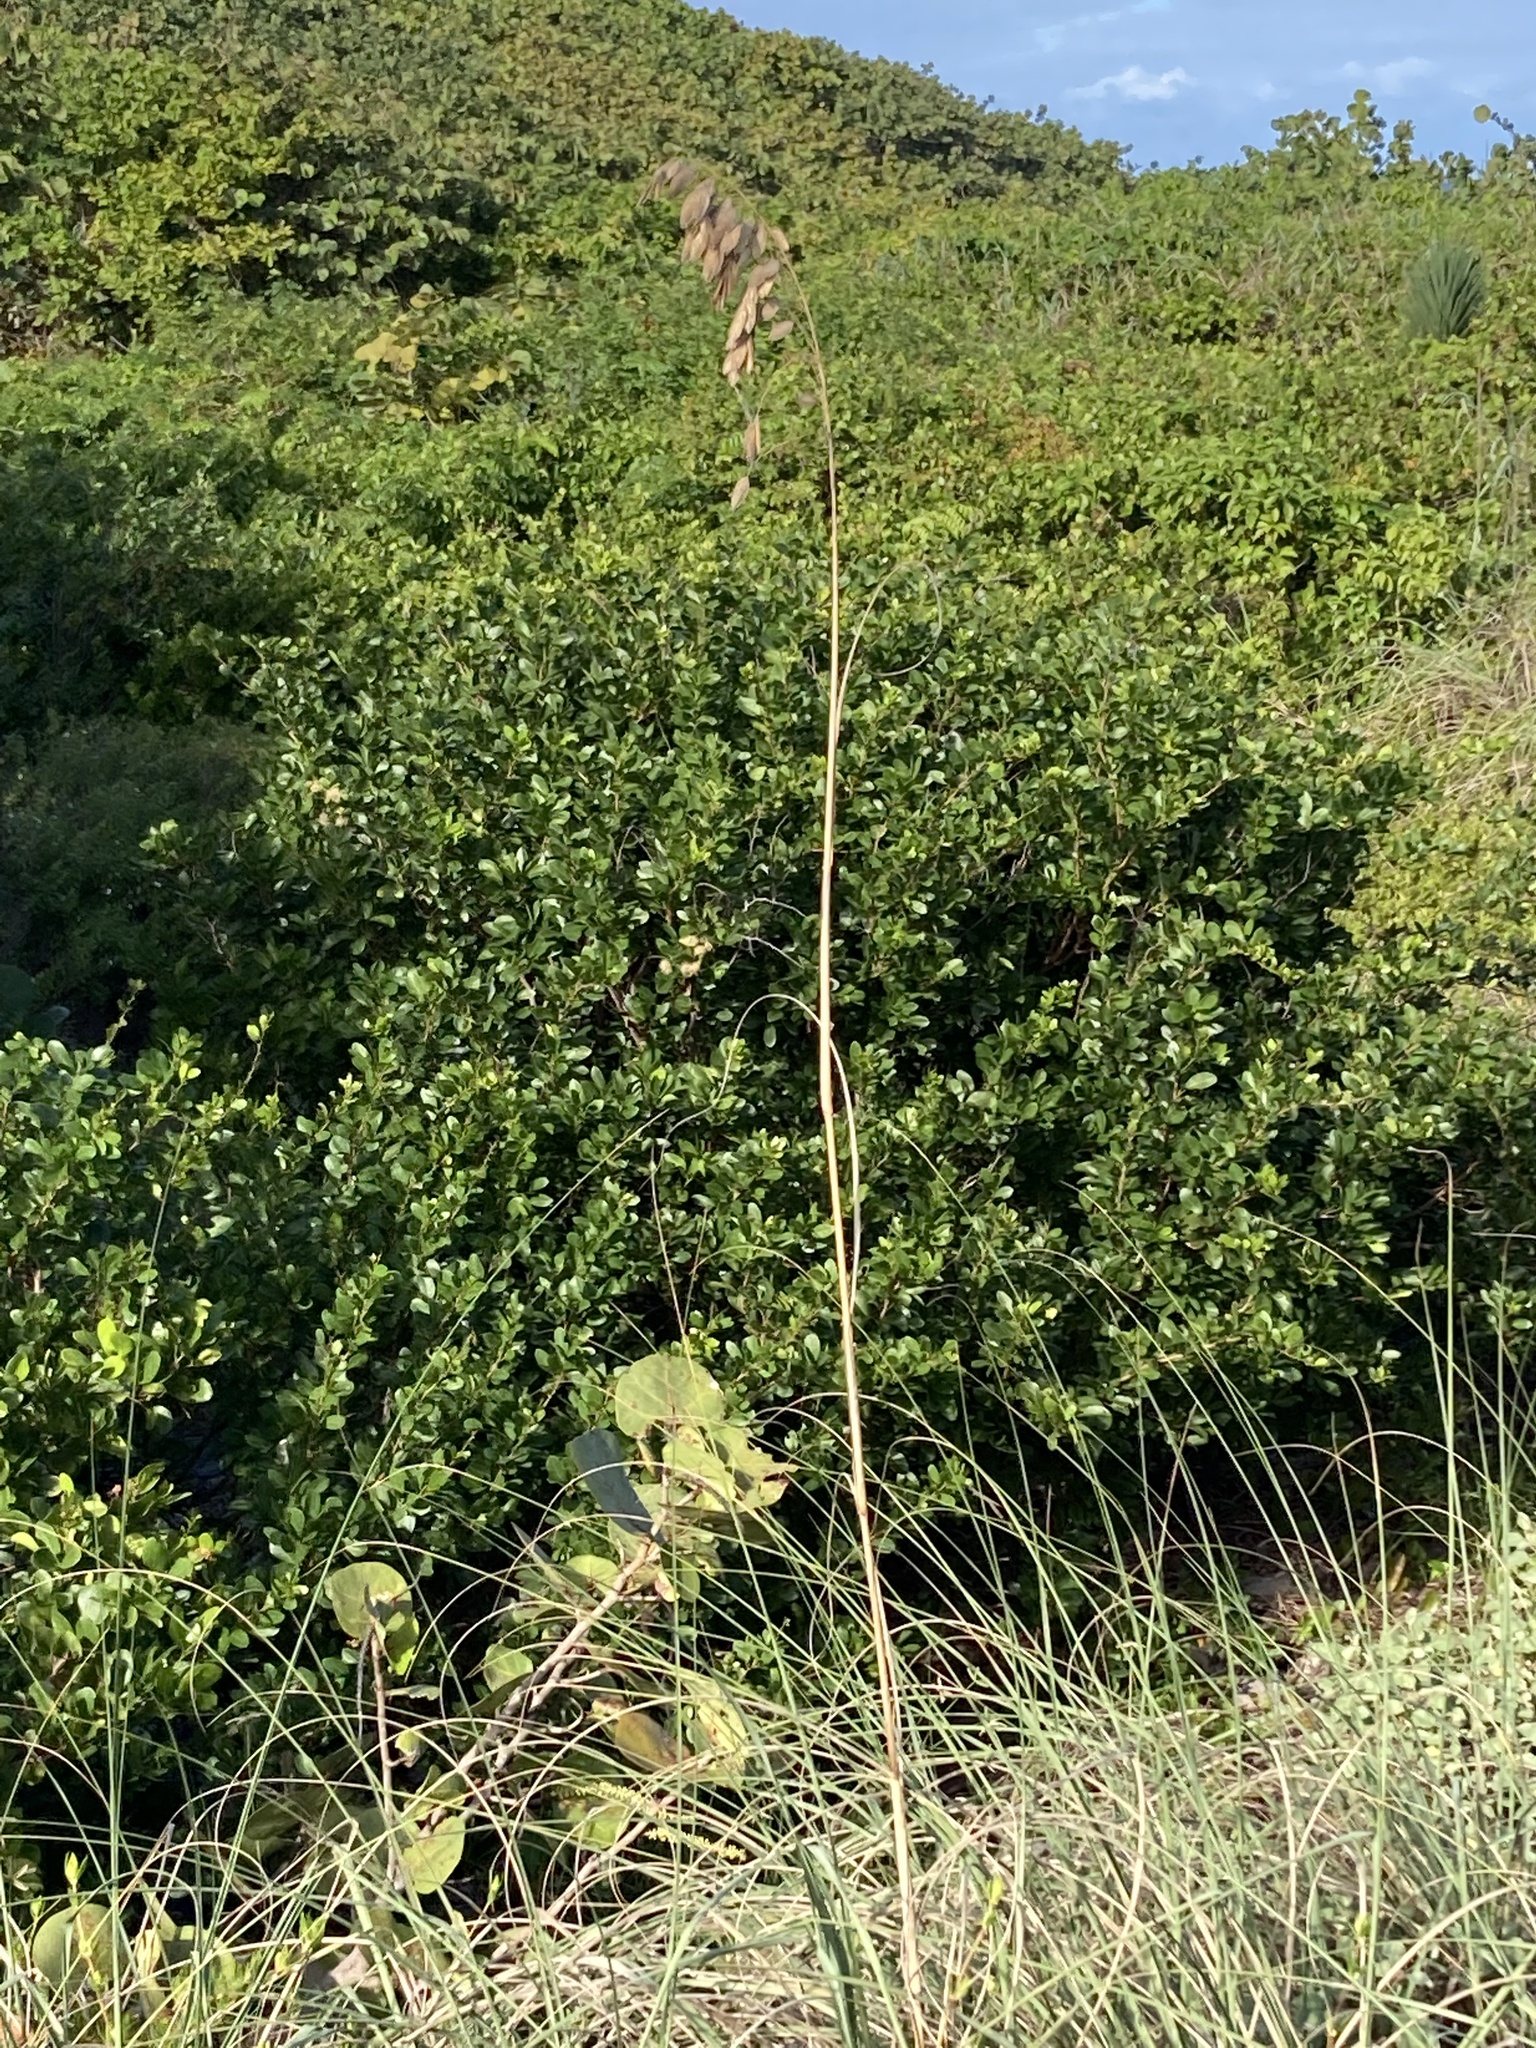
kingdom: Plantae
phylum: Tracheophyta
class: Liliopsida
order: Poales
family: Poaceae
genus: Uniola
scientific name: Uniola paniculata
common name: Seaside-oats
